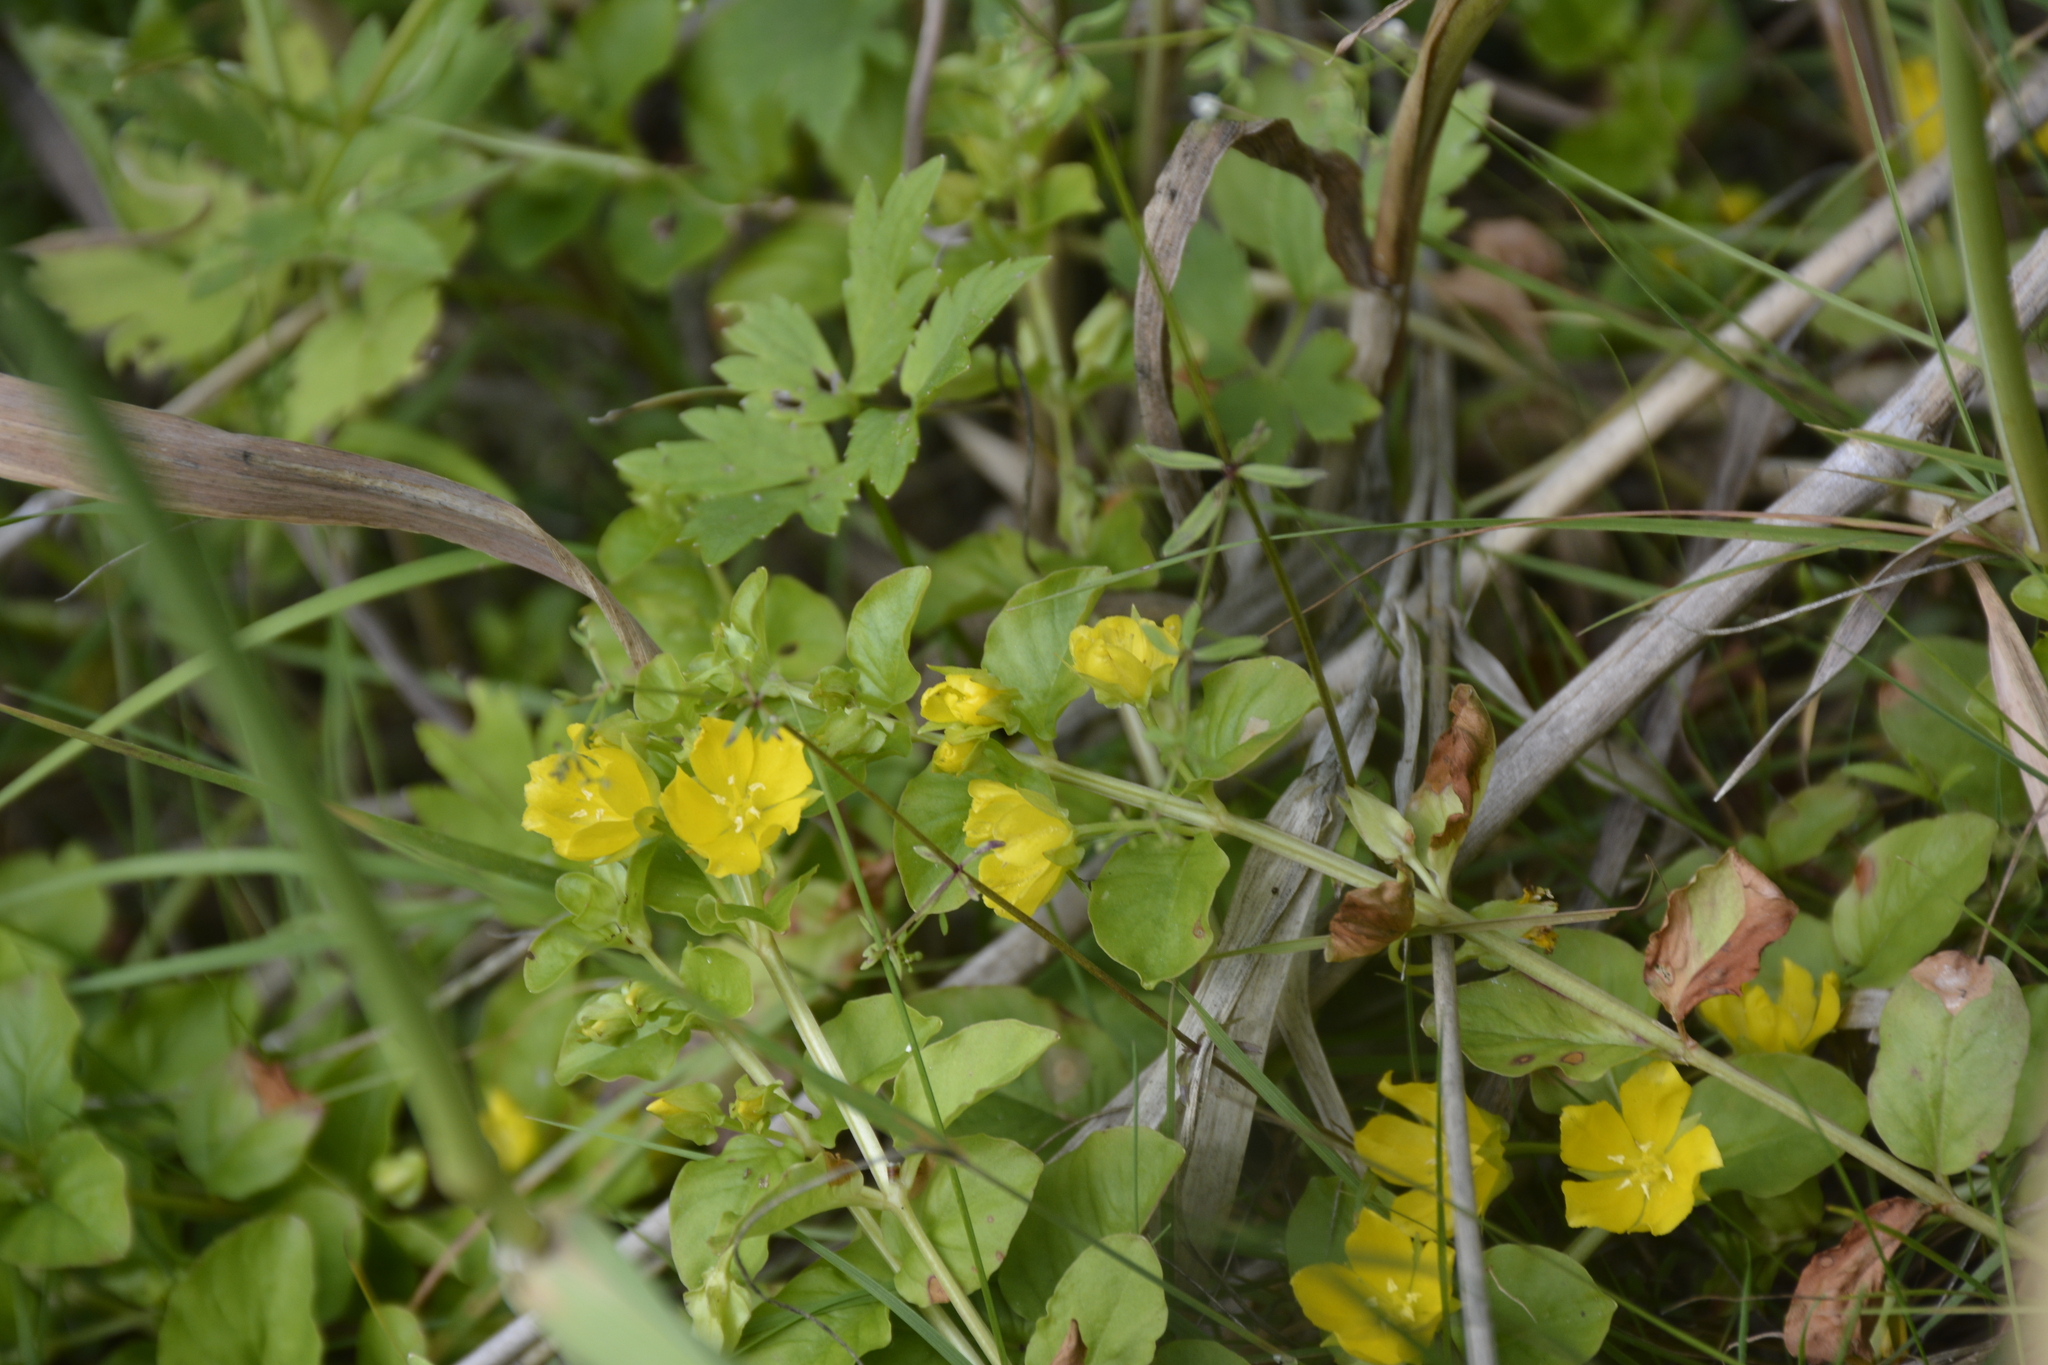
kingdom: Plantae
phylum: Tracheophyta
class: Magnoliopsida
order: Ericales
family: Primulaceae
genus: Lysimachia
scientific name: Lysimachia nummularia
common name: Moneywort
